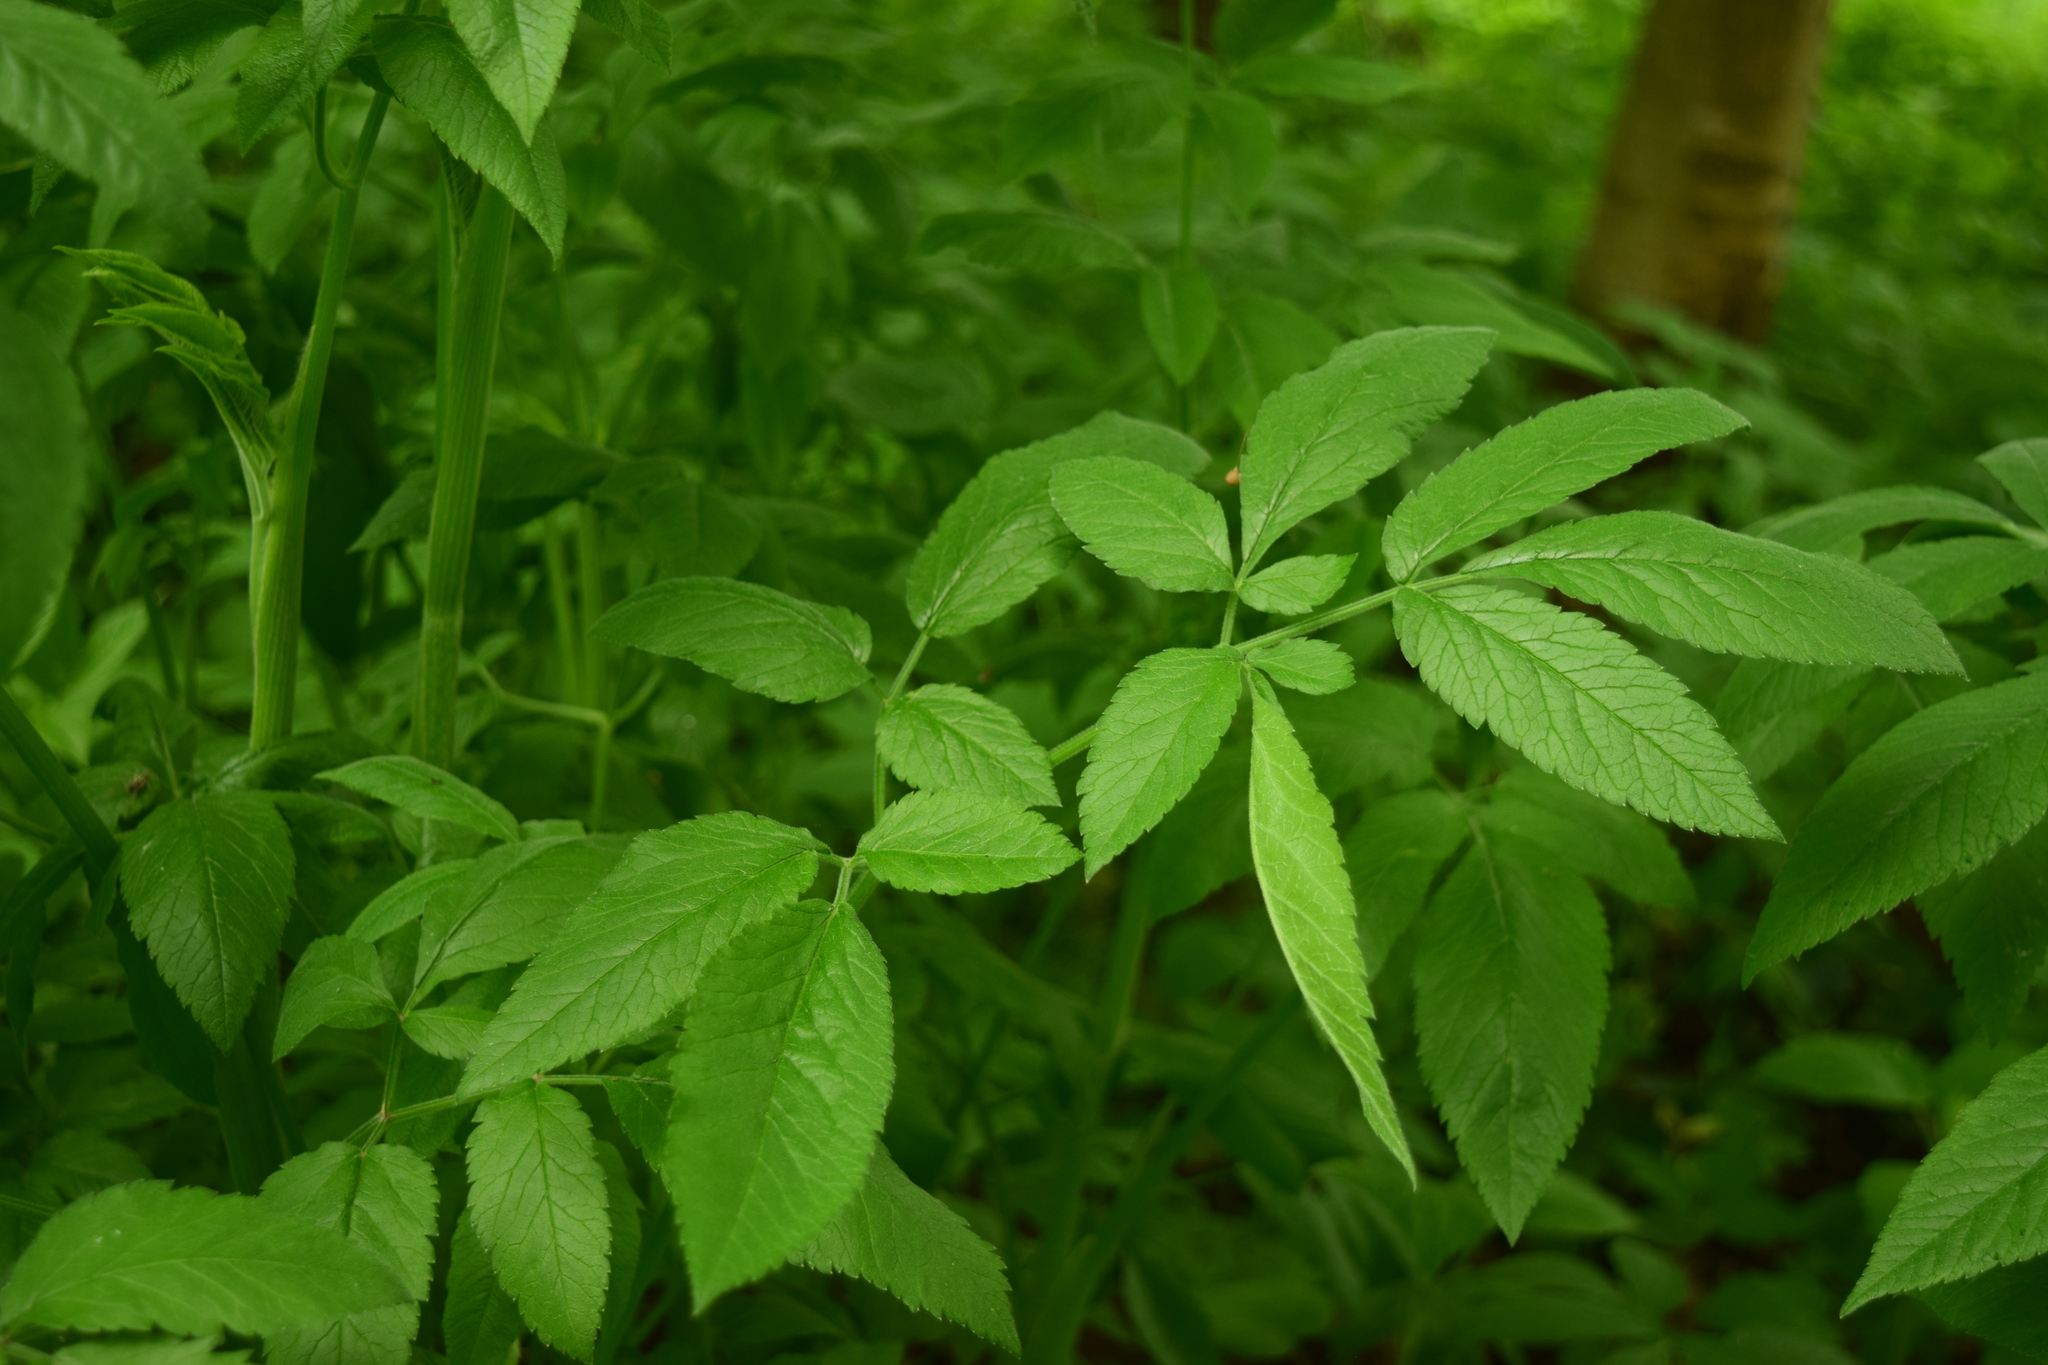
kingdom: Plantae
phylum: Tracheophyta
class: Magnoliopsida
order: Apiales
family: Apiaceae
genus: Chaerophyllum
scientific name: Chaerophyllum aromaticum
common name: Broadleaf chervil
